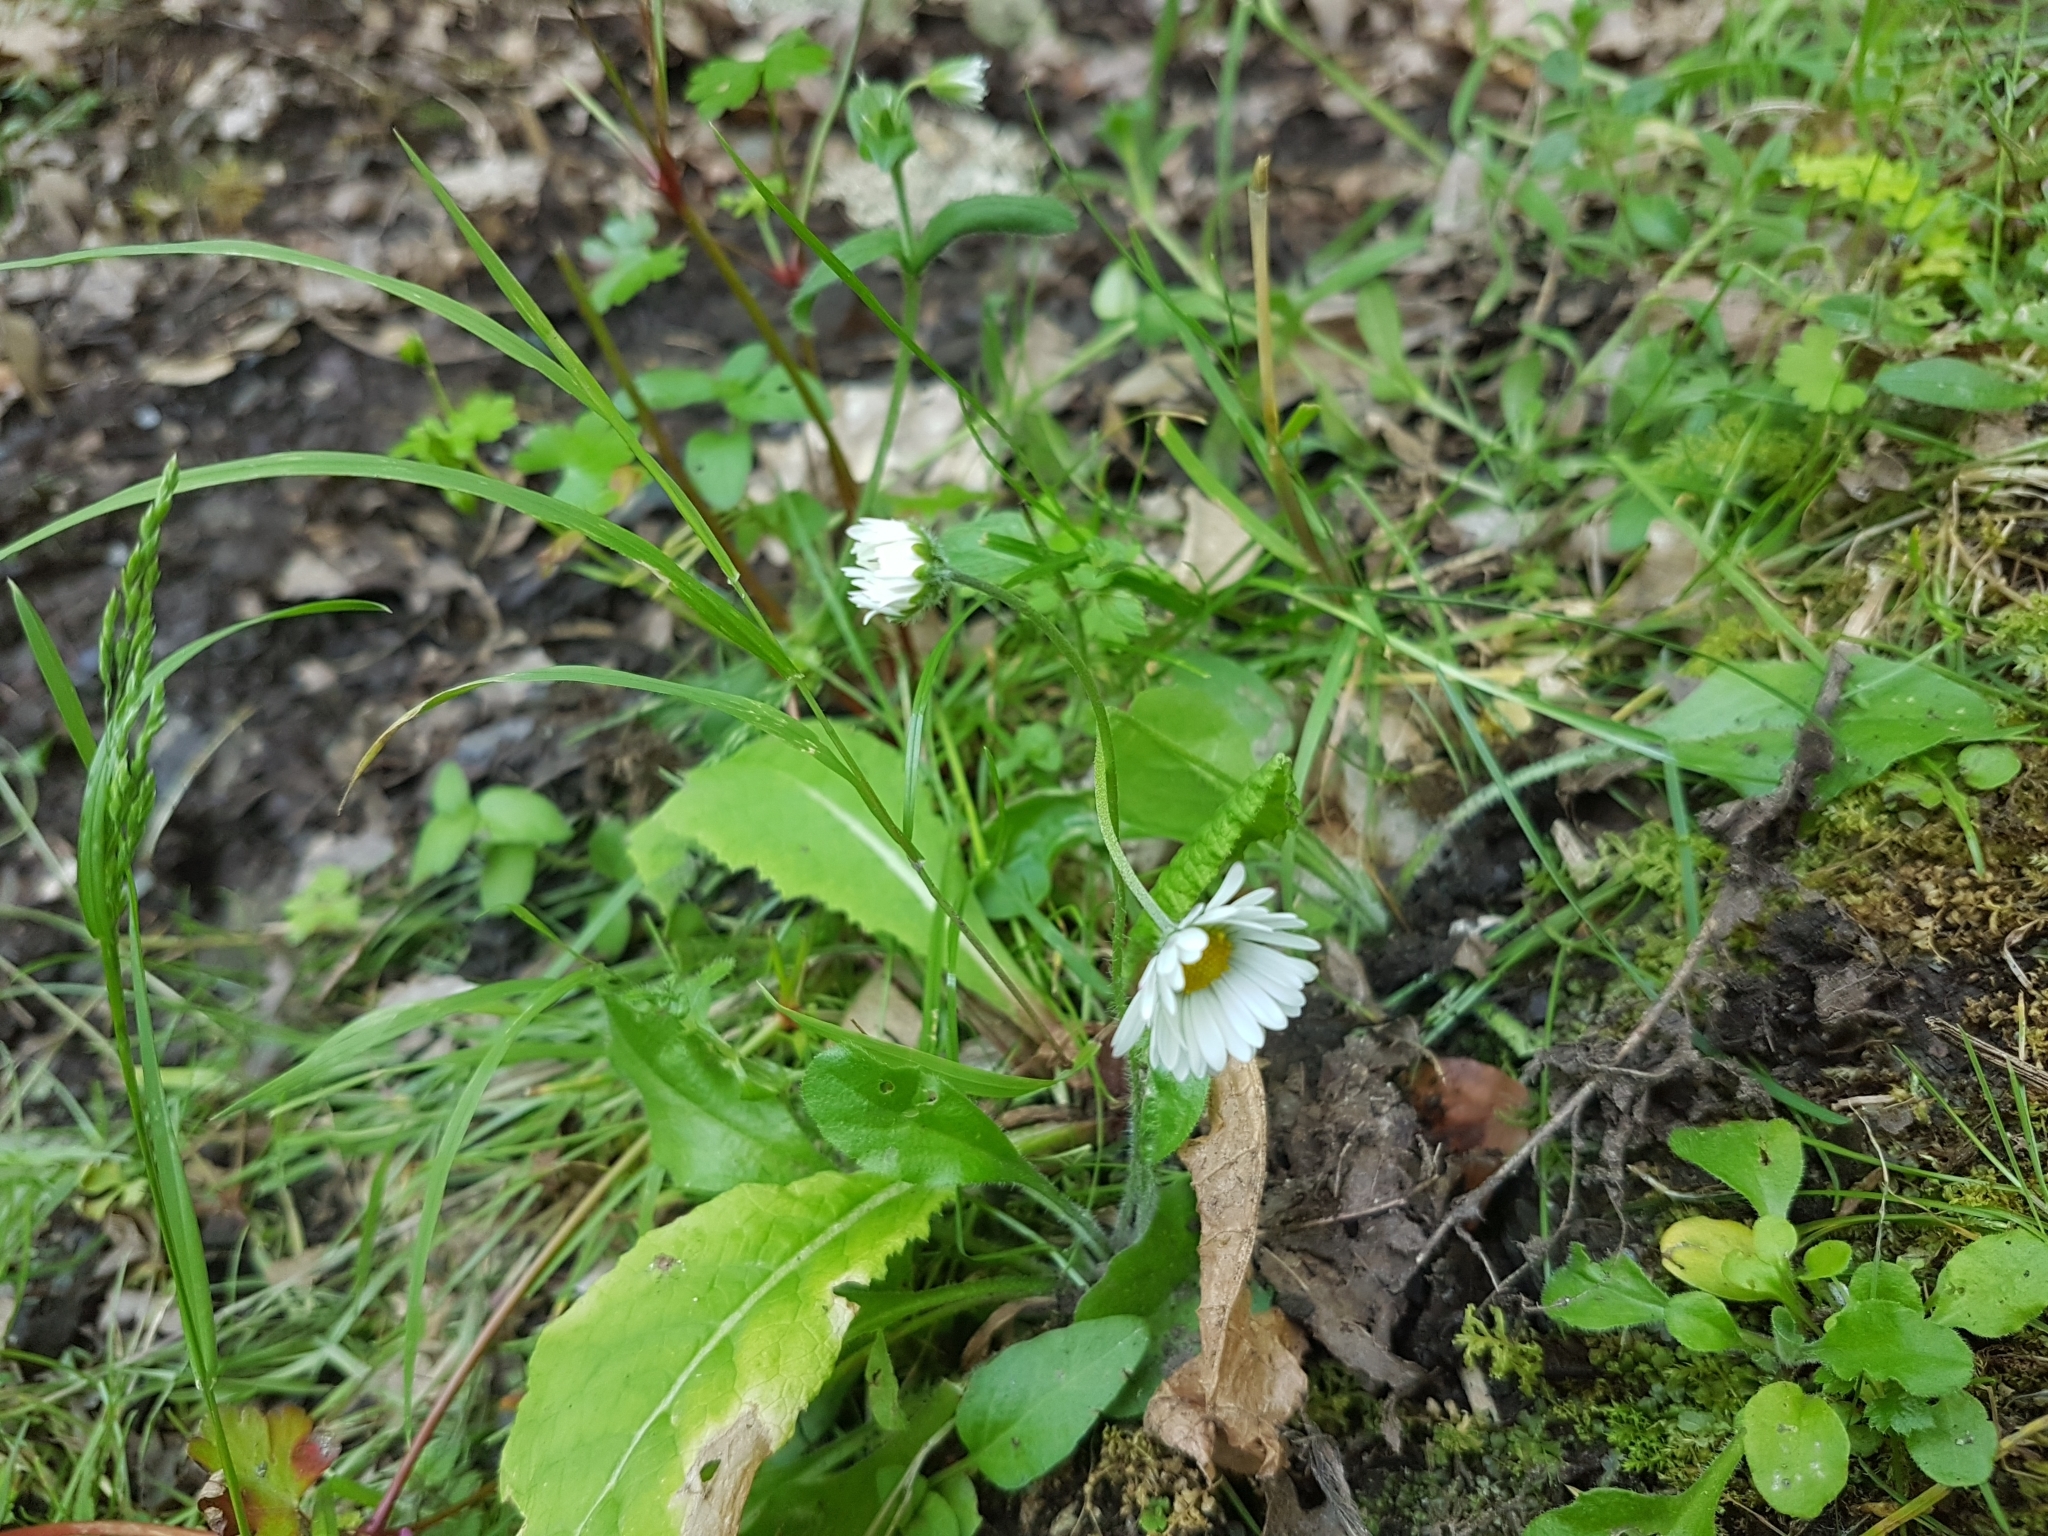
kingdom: Plantae
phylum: Tracheophyta
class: Magnoliopsida
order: Asterales
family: Asteraceae
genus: Bellis
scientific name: Bellis perennis
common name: Lawndaisy
